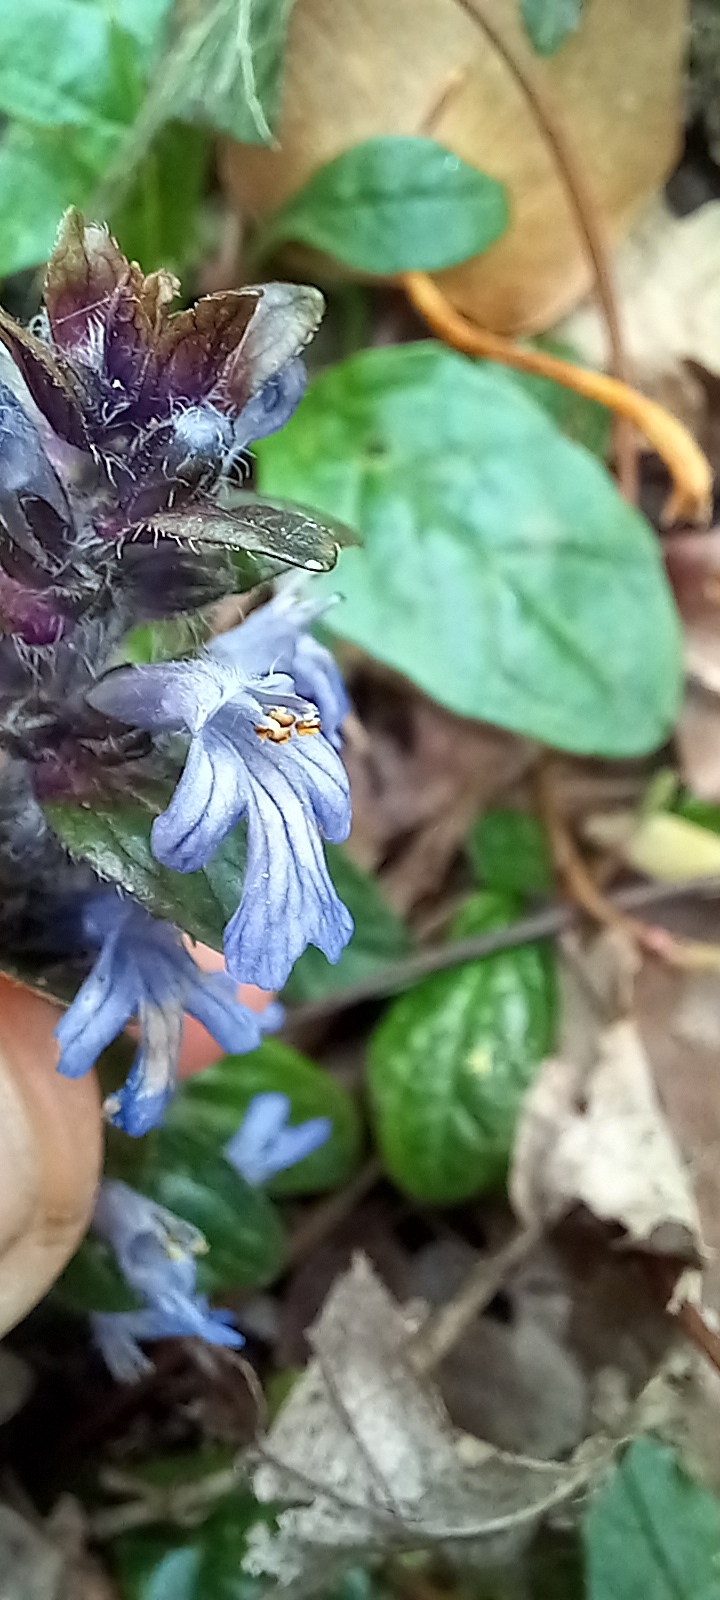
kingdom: Plantae
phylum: Tracheophyta
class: Magnoliopsida
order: Lamiales
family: Lamiaceae
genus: Ajuga
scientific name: Ajuga reptans
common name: Bugle
